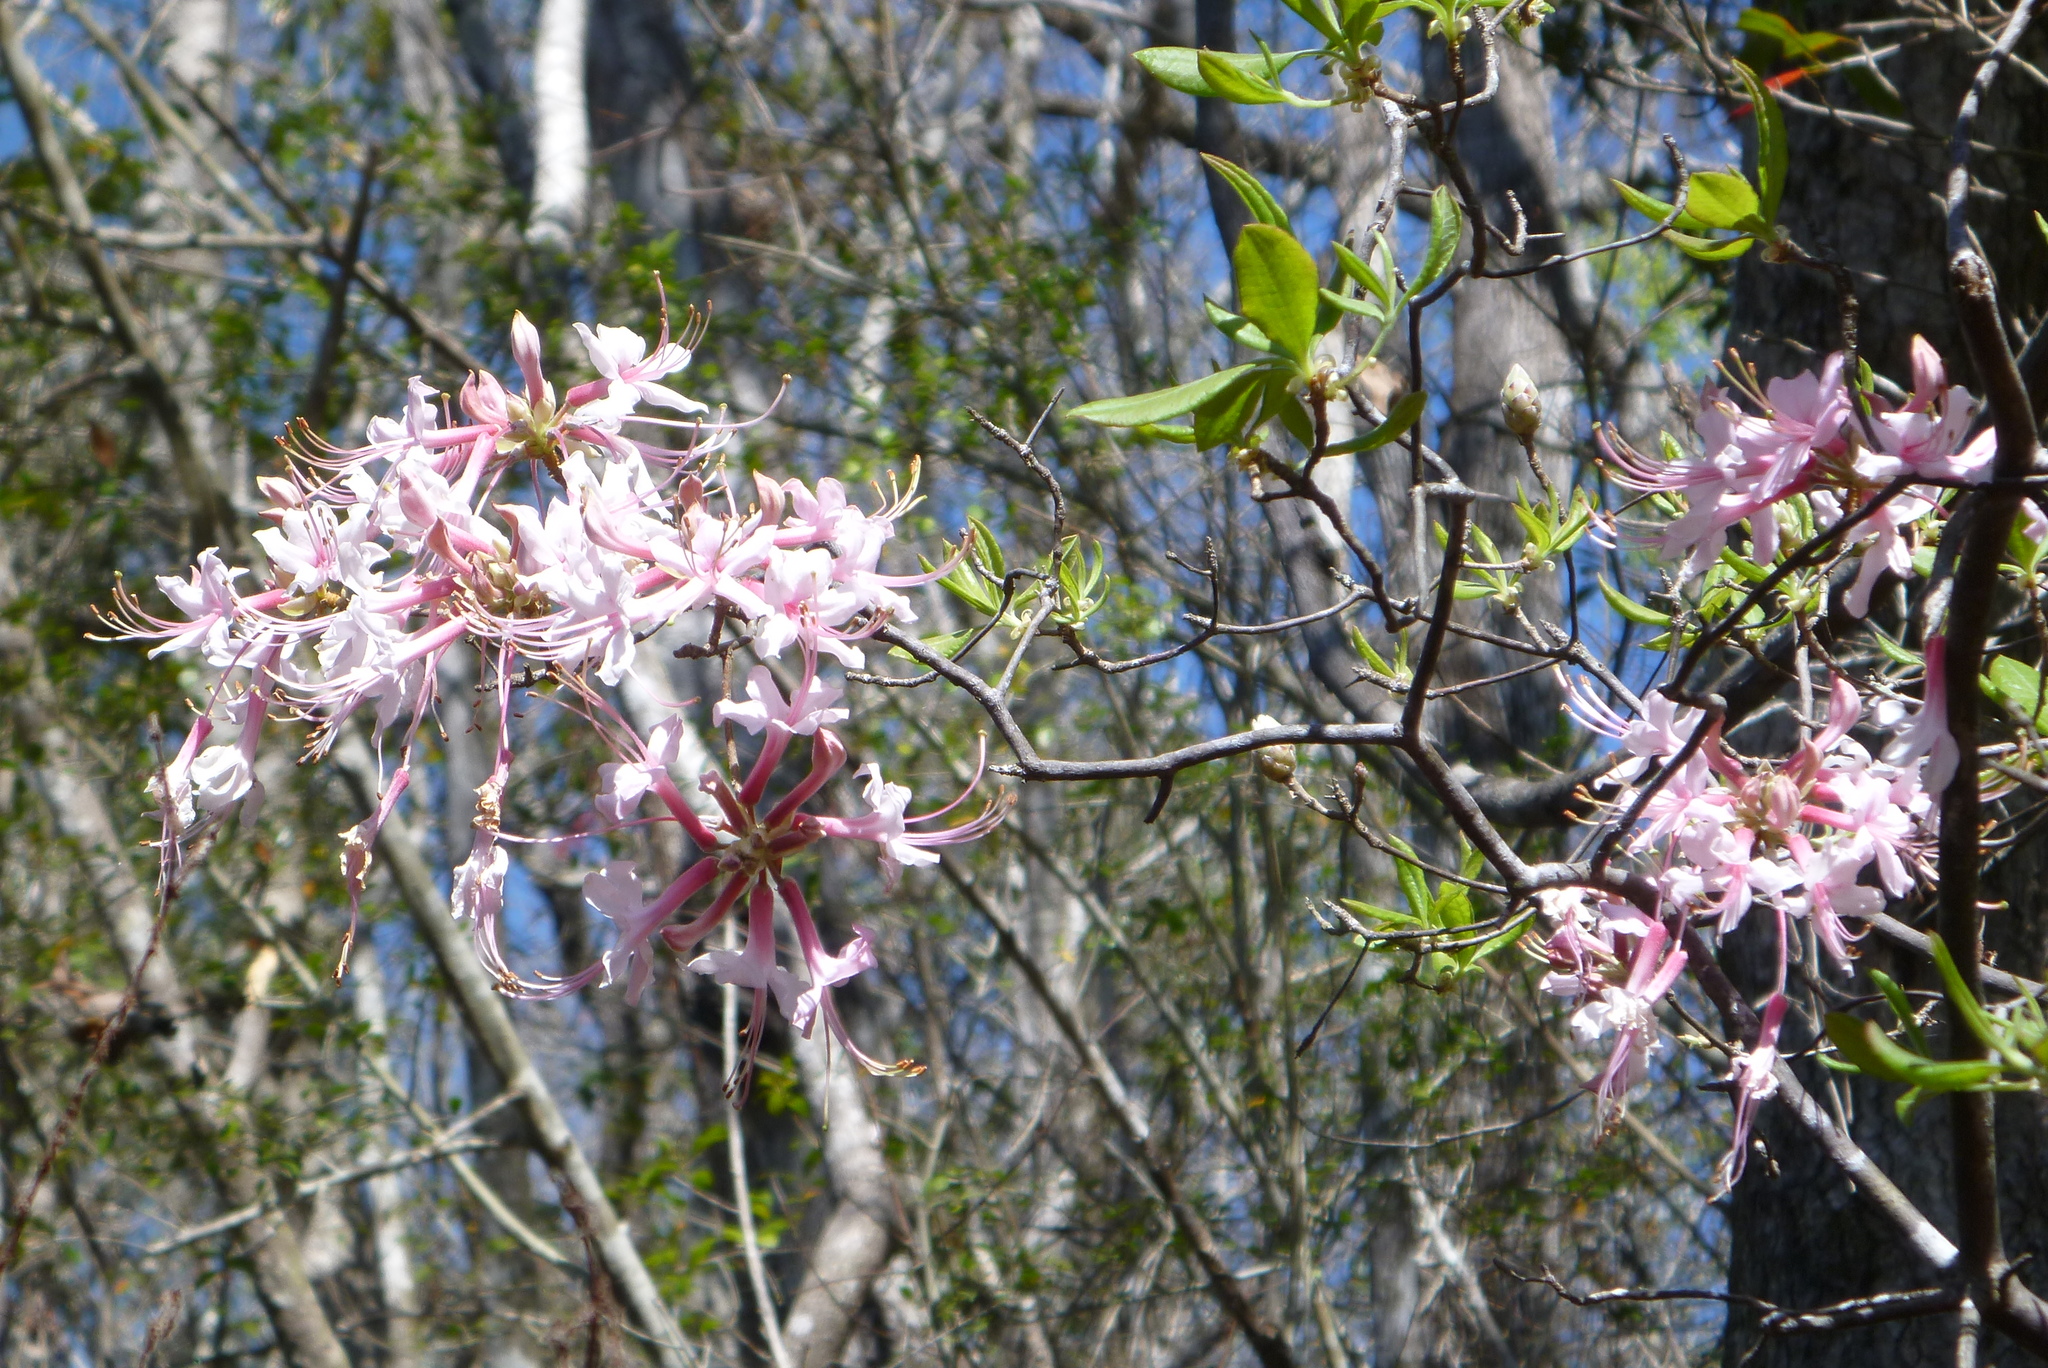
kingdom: Plantae
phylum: Tracheophyta
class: Magnoliopsida
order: Ericales
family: Ericaceae
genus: Rhododendron
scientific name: Rhododendron canescens
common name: Mountain azalea
